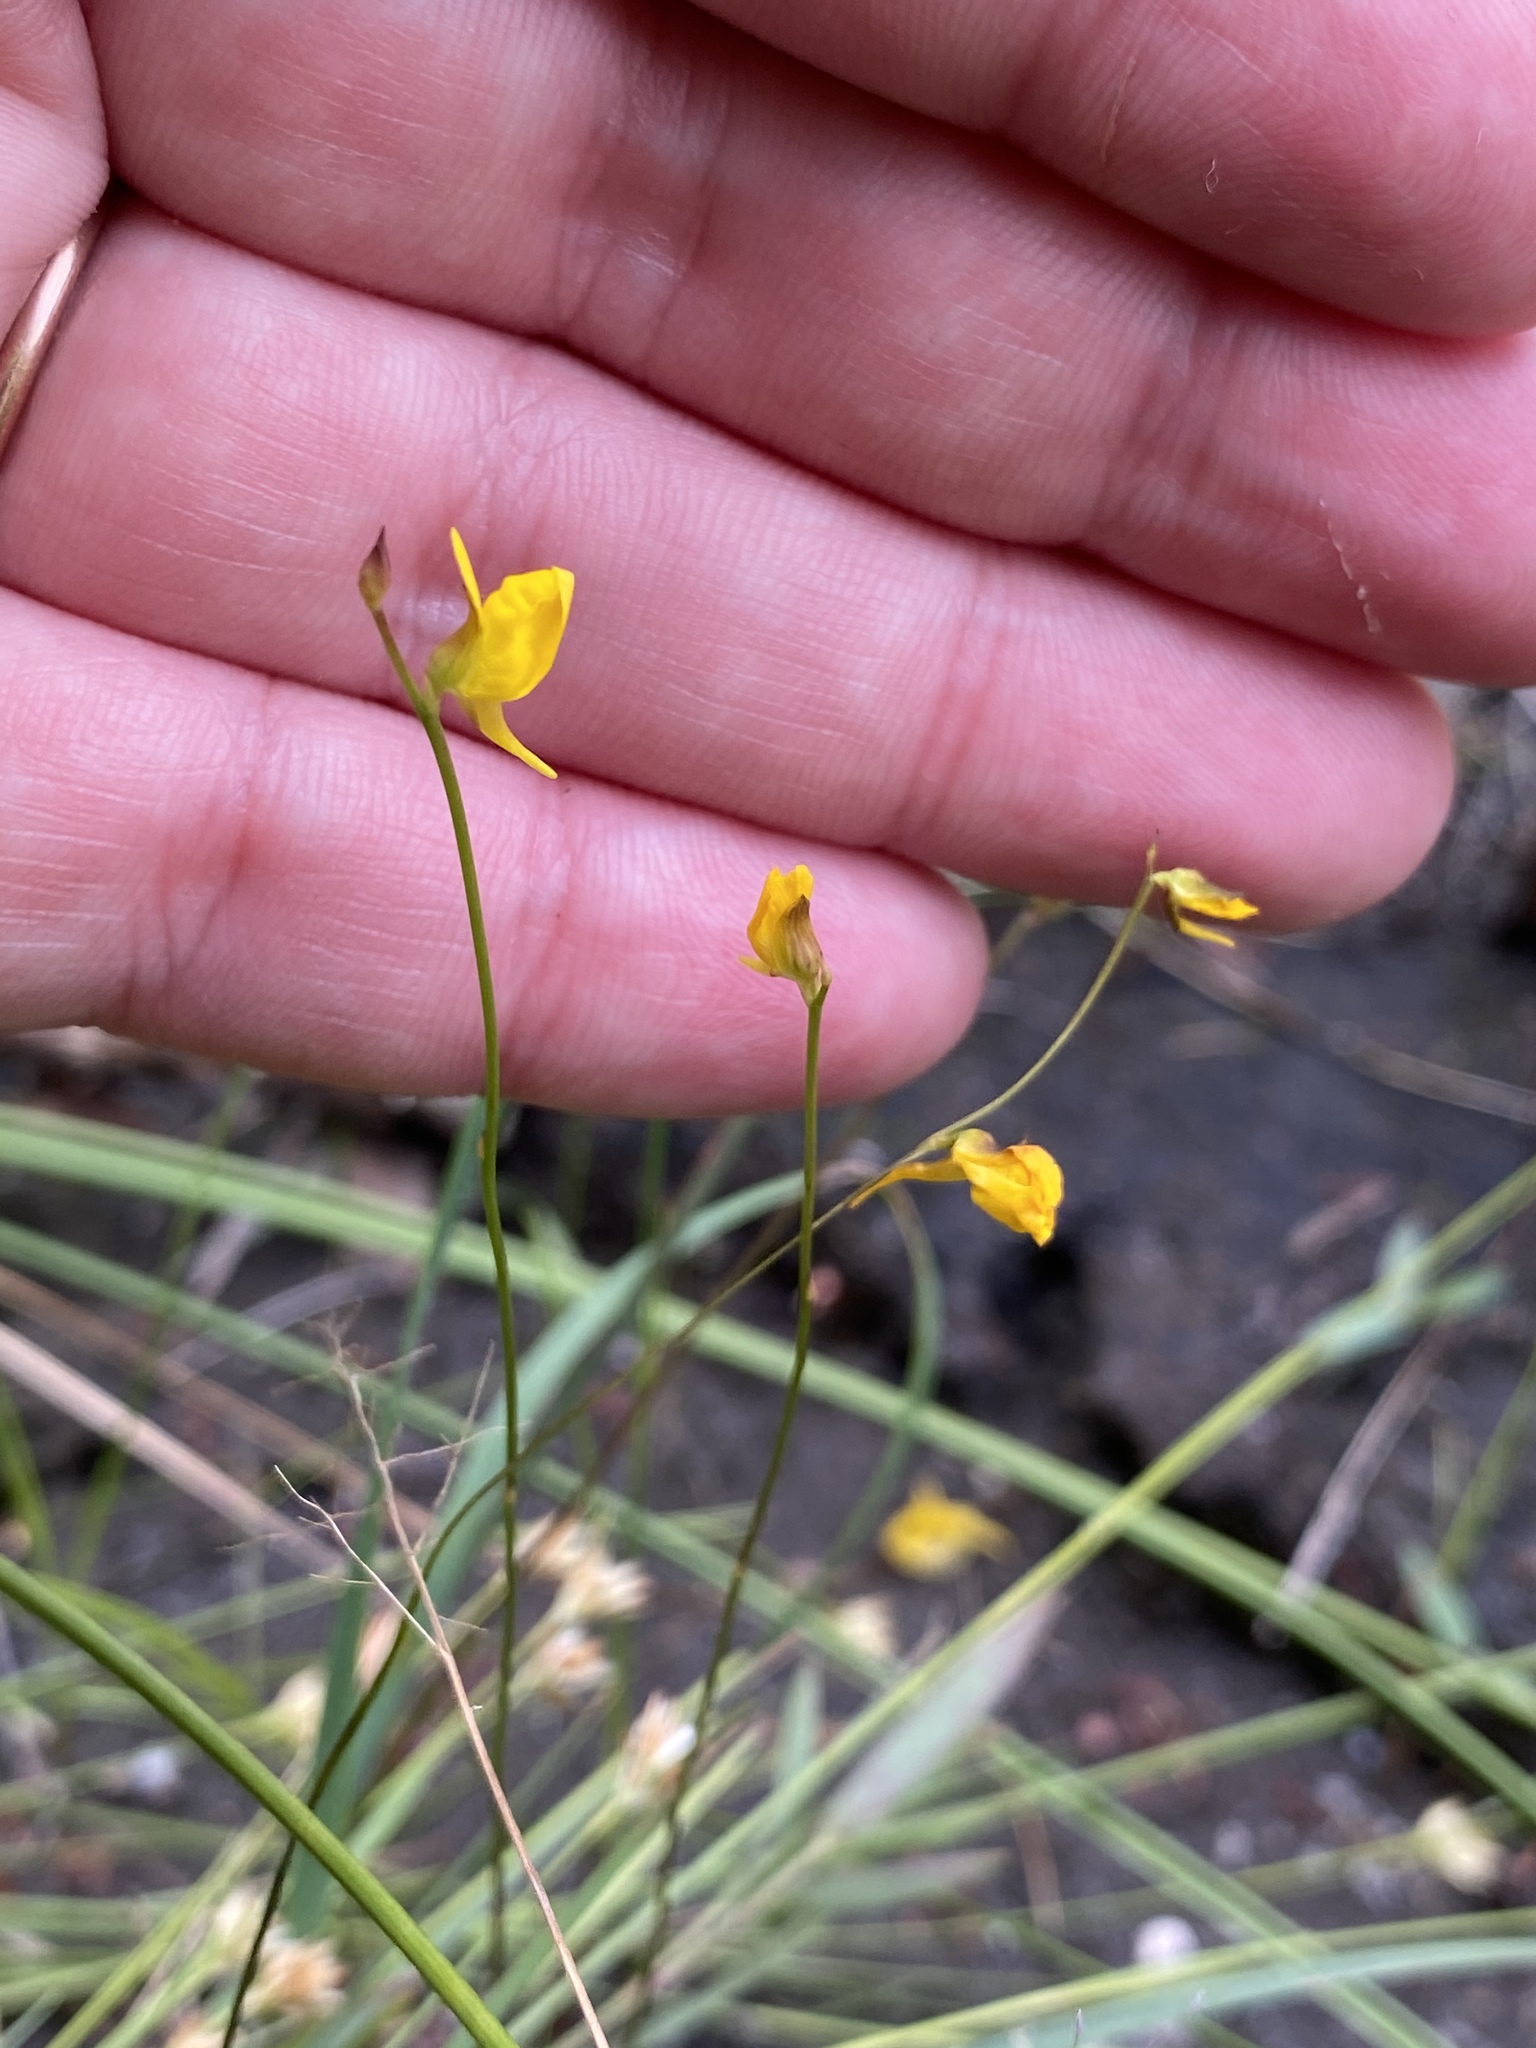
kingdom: Plantae
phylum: Tracheophyta
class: Magnoliopsida
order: Lamiales
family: Lentibulariaceae
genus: Utricularia
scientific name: Utricularia cornuta
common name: Horned bladderwort
